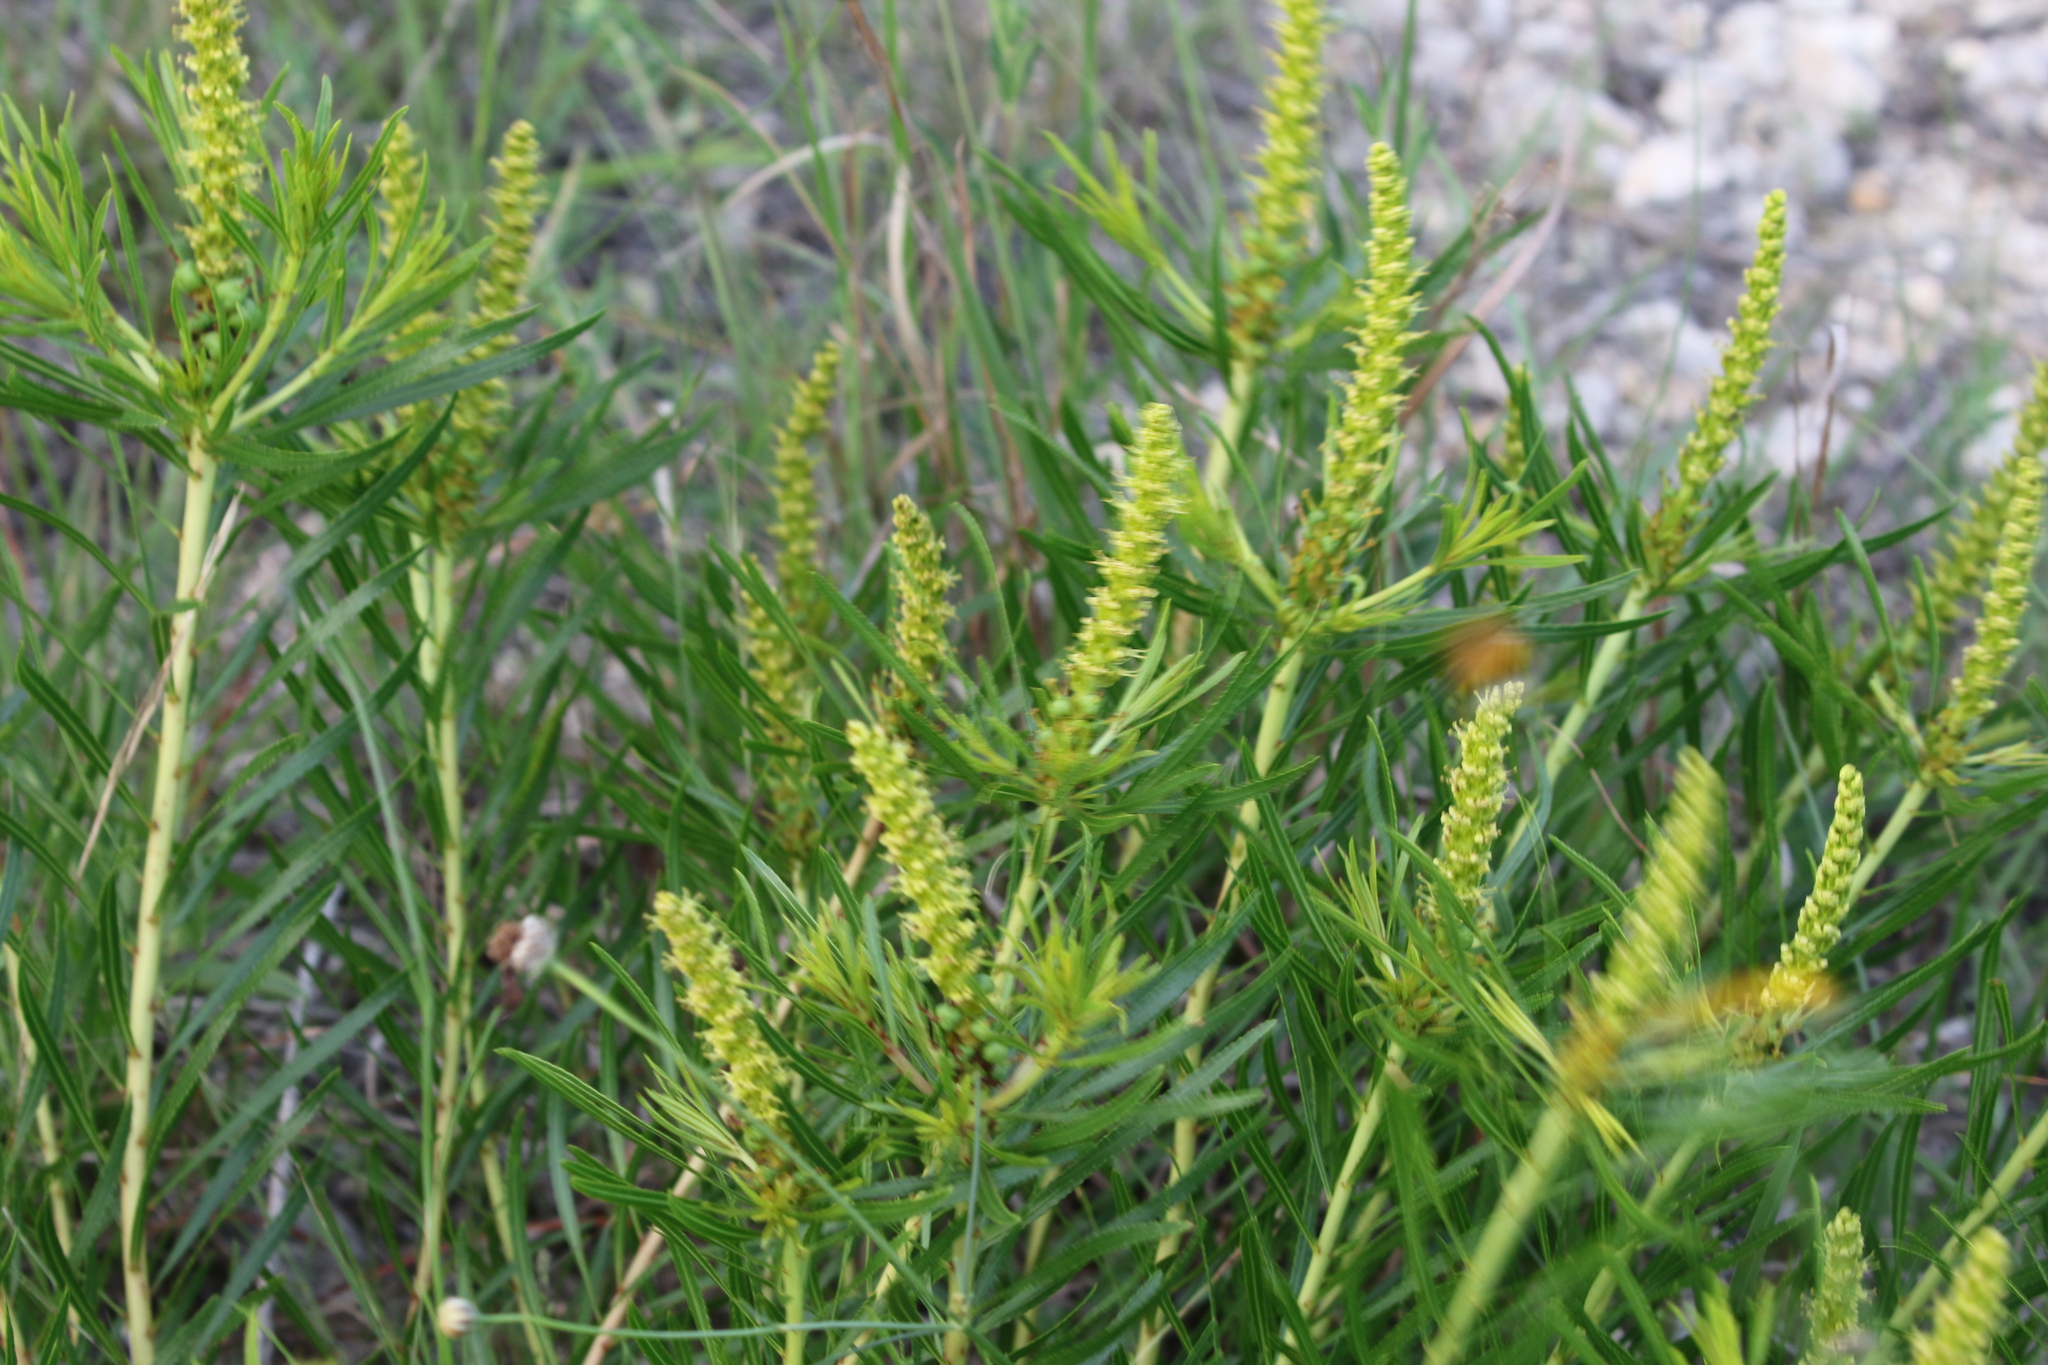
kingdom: Plantae
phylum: Tracheophyta
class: Magnoliopsida
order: Malpighiales
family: Euphorbiaceae
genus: Stillingia
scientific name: Stillingia texana
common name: Texas stillingia
